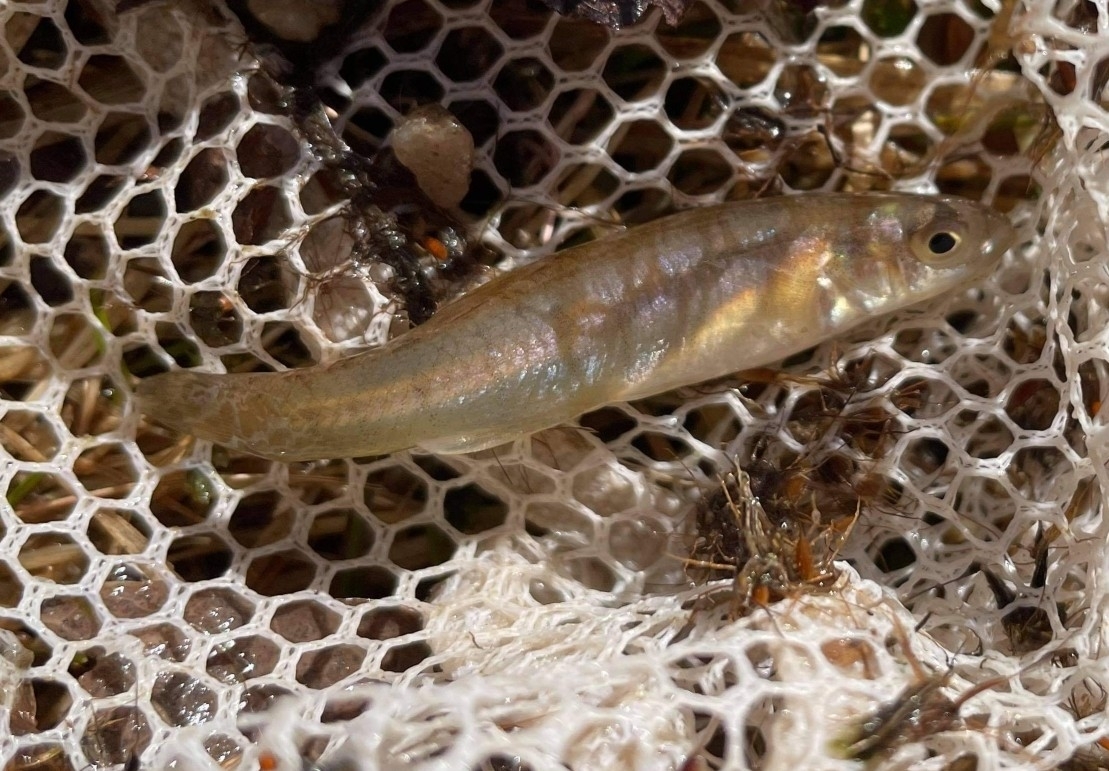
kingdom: Animalia
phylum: Chordata
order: Cyprinodontiformes
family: Fundulidae
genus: Fundulus
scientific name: Fundulus diaphanus
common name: Banded killifish
